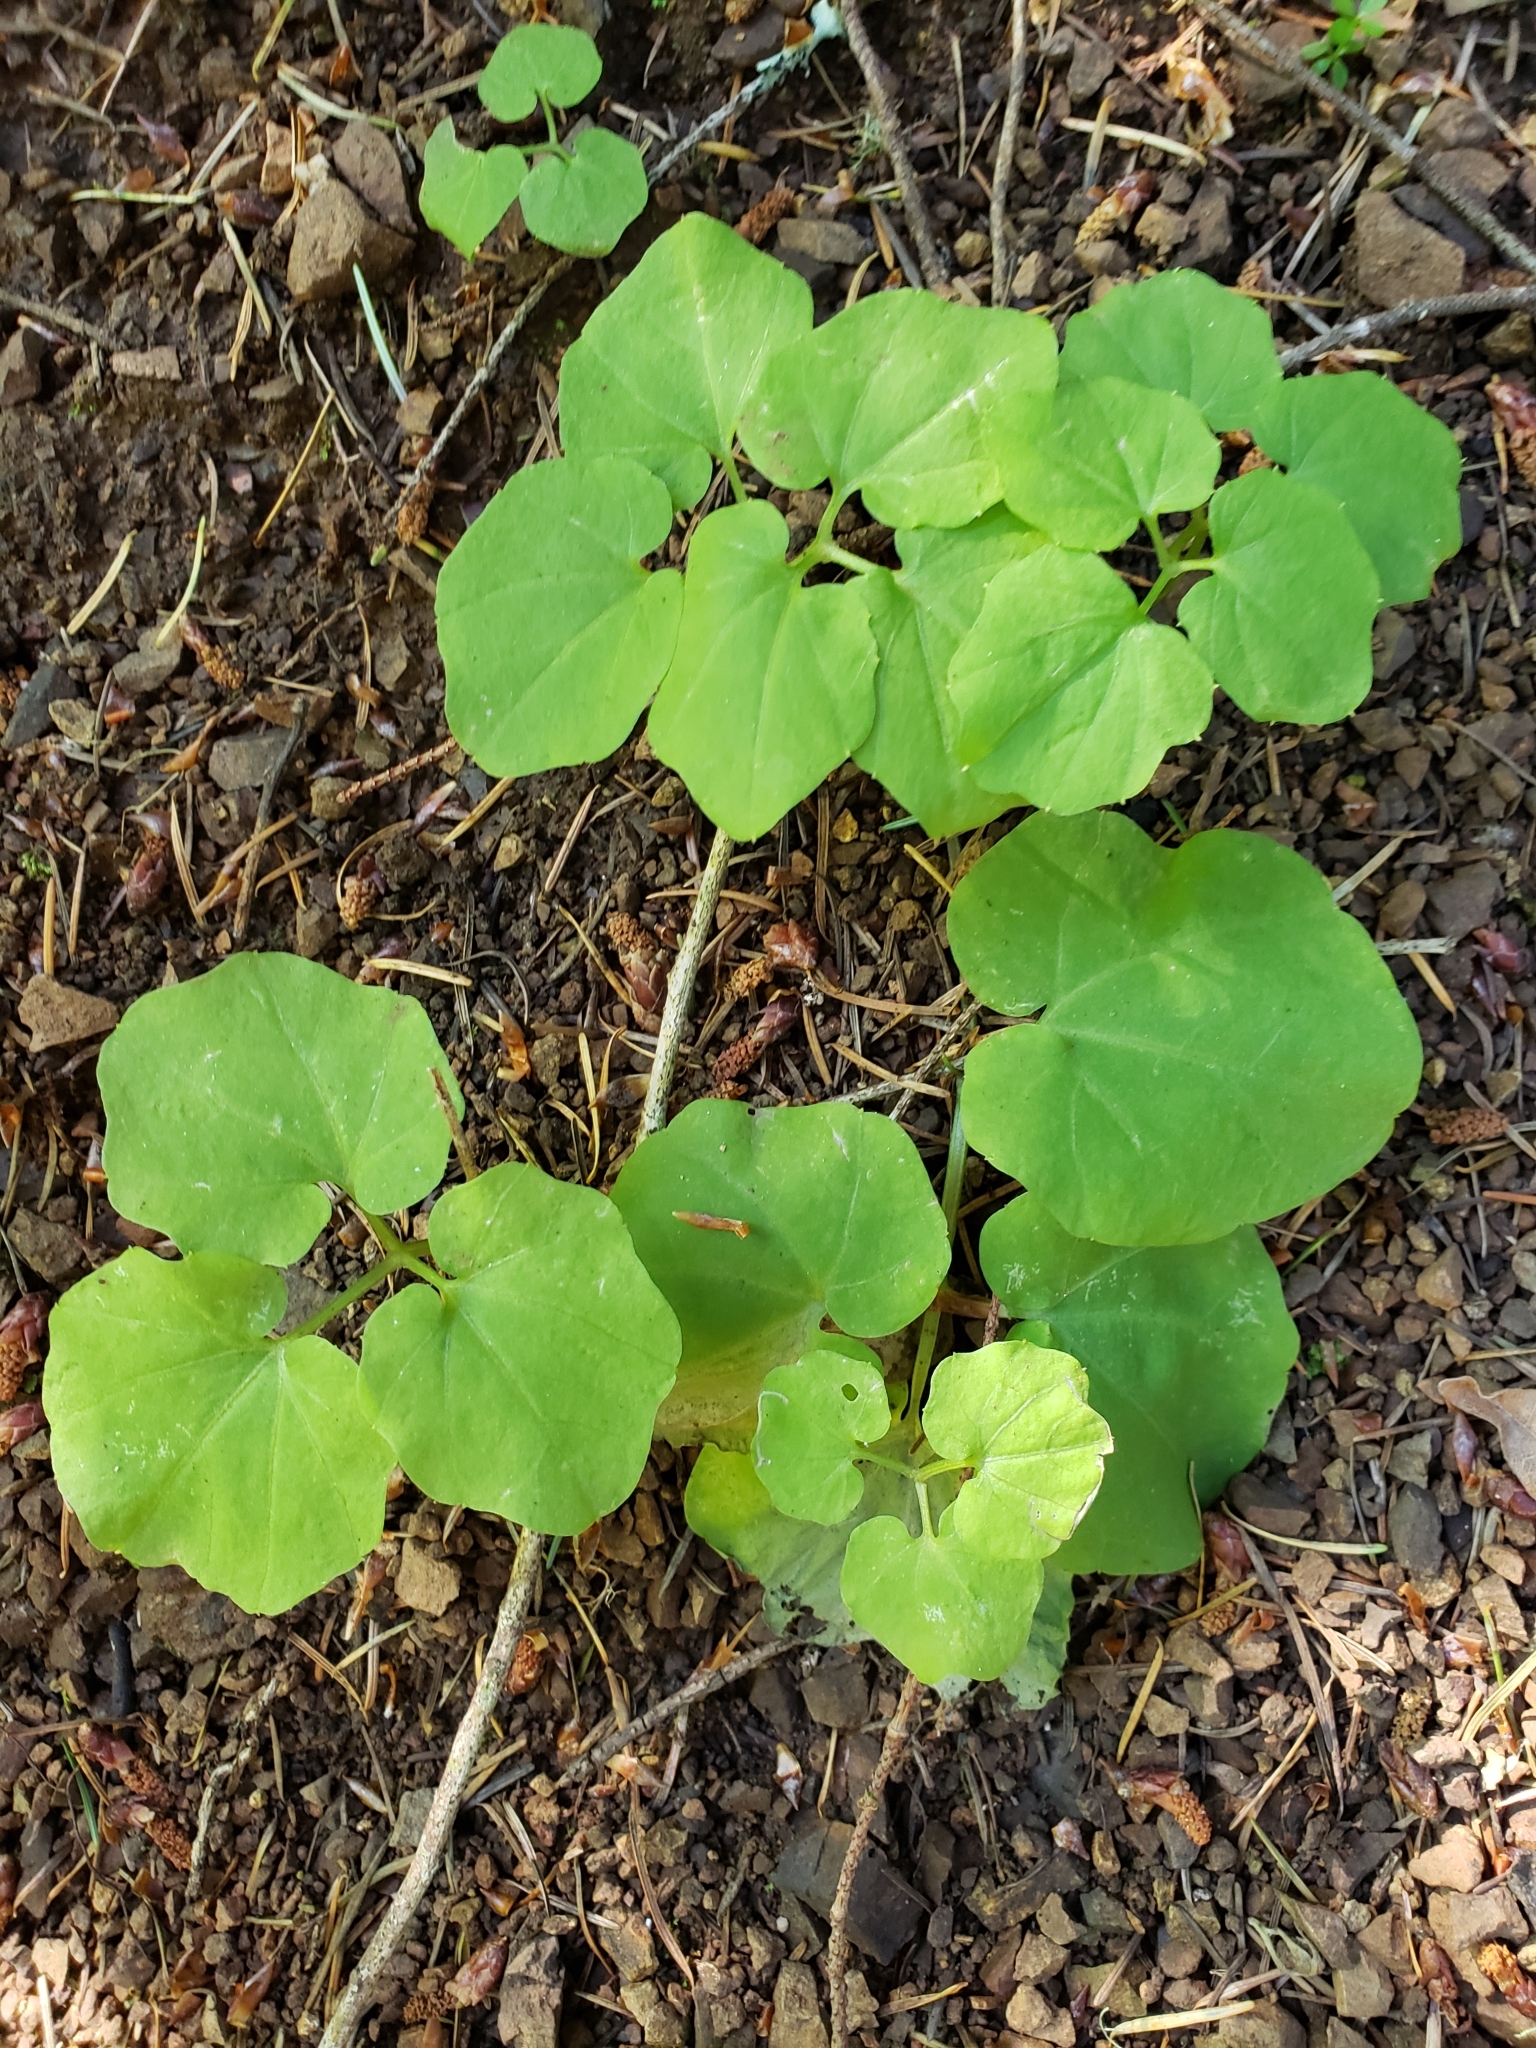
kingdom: Plantae
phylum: Tracheophyta
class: Magnoliopsida
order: Brassicales
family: Brassicaceae
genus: Cardamine
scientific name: Cardamine californica
